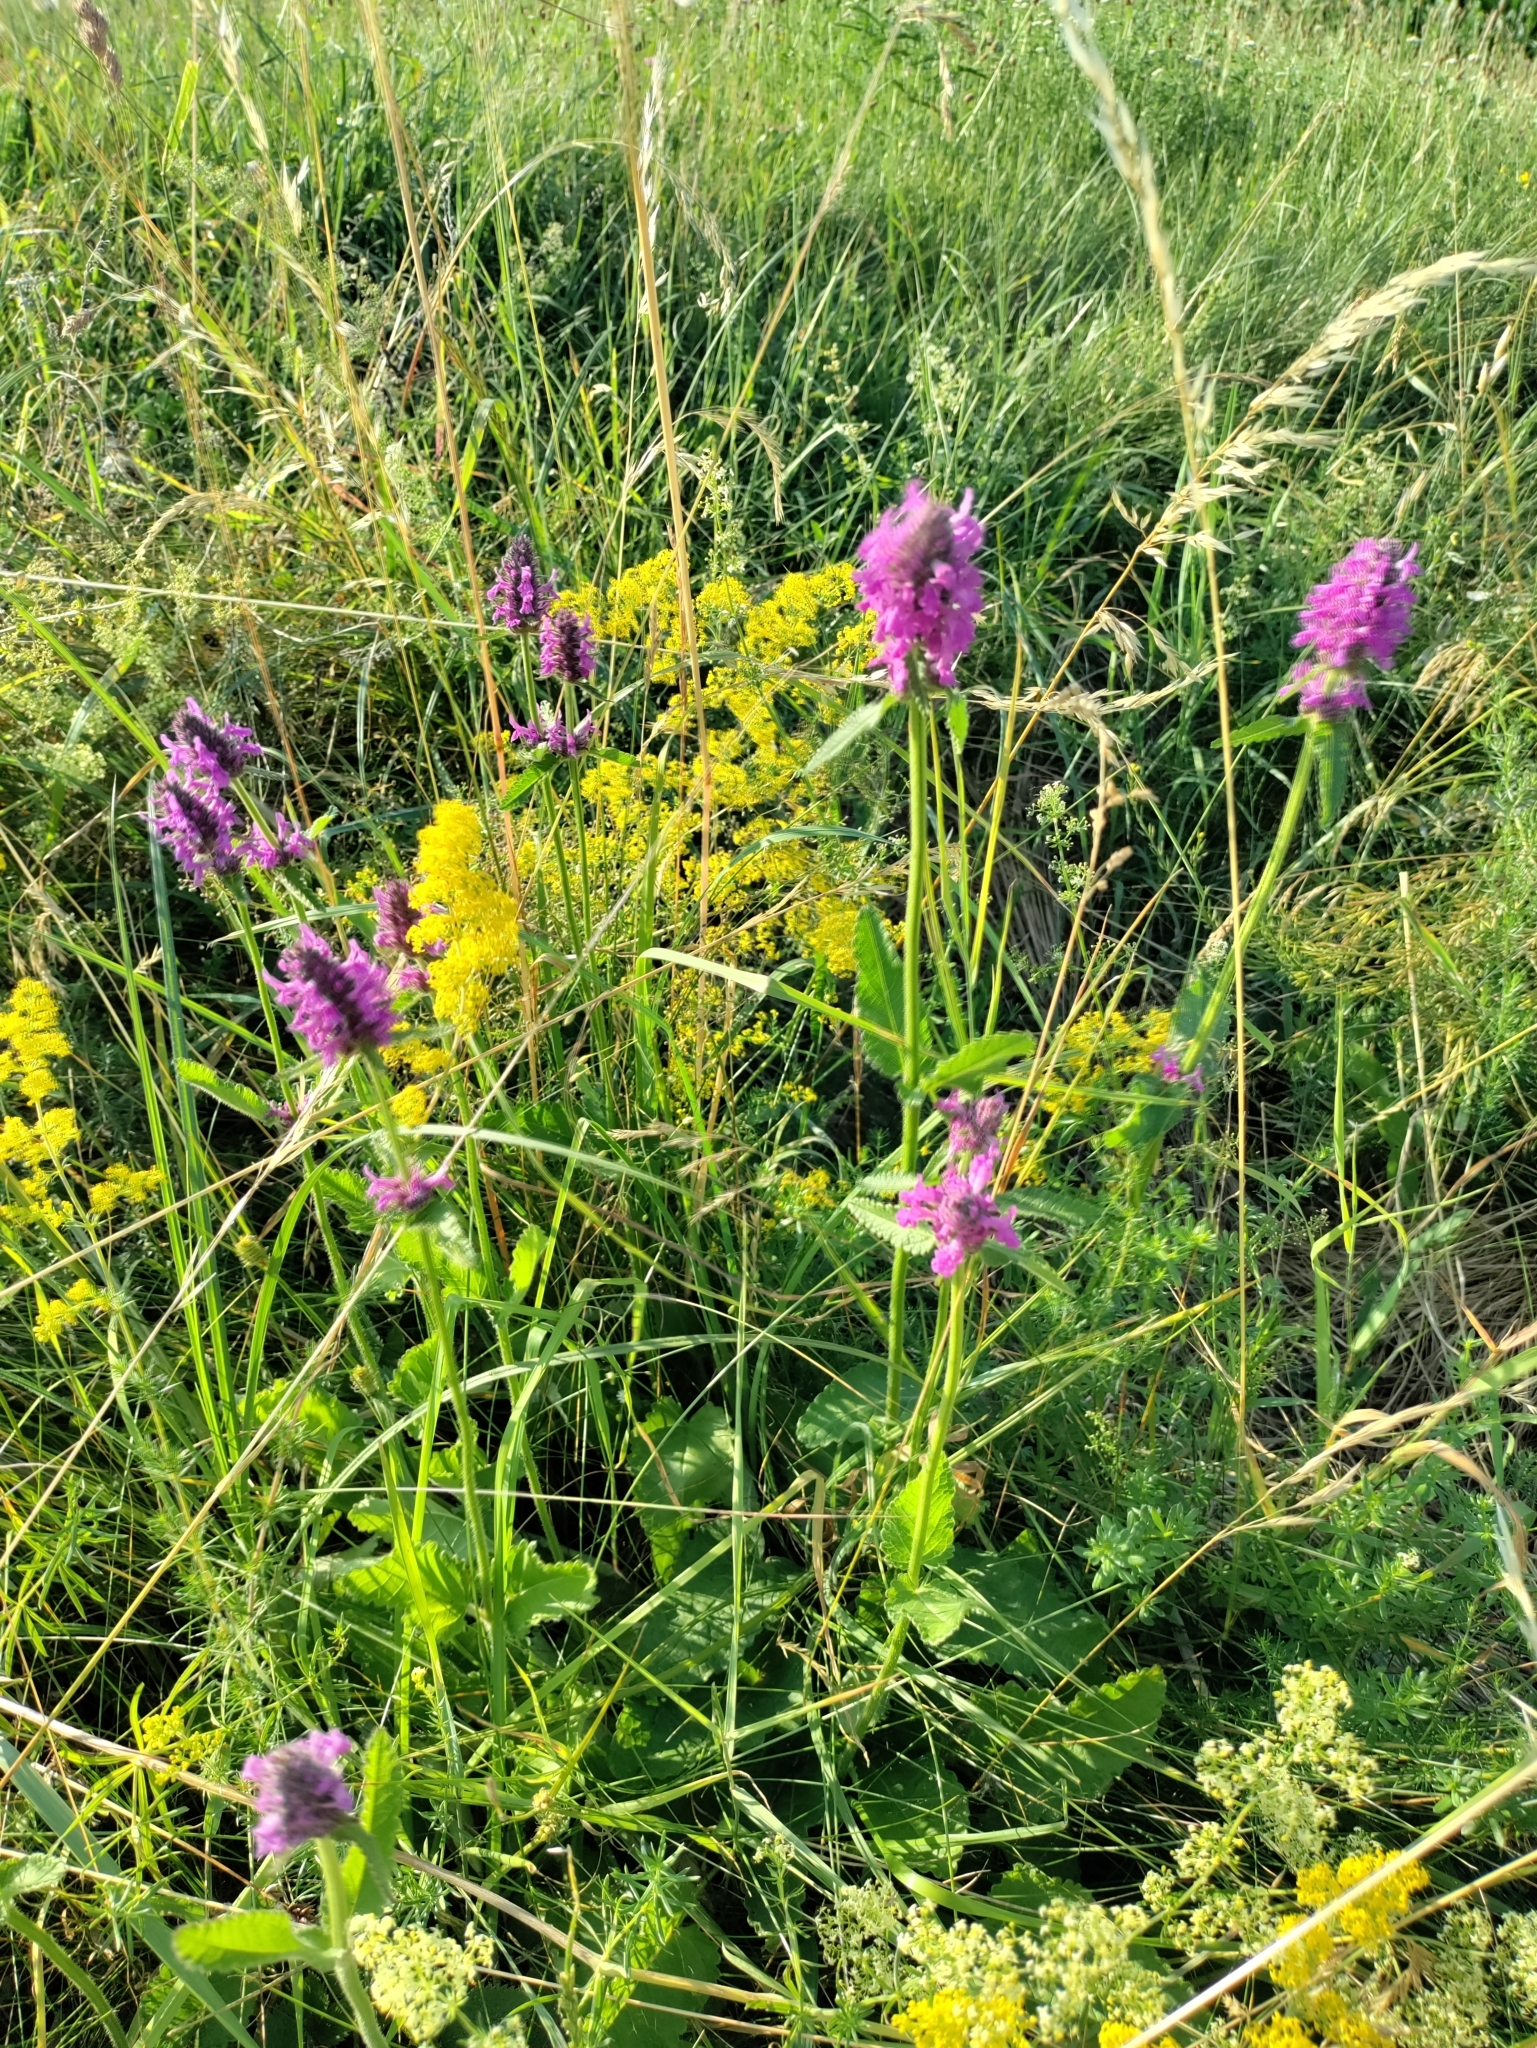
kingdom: Plantae
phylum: Tracheophyta
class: Magnoliopsida
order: Lamiales
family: Lamiaceae
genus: Betonica
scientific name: Betonica officinalis
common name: Bishop's-wort
